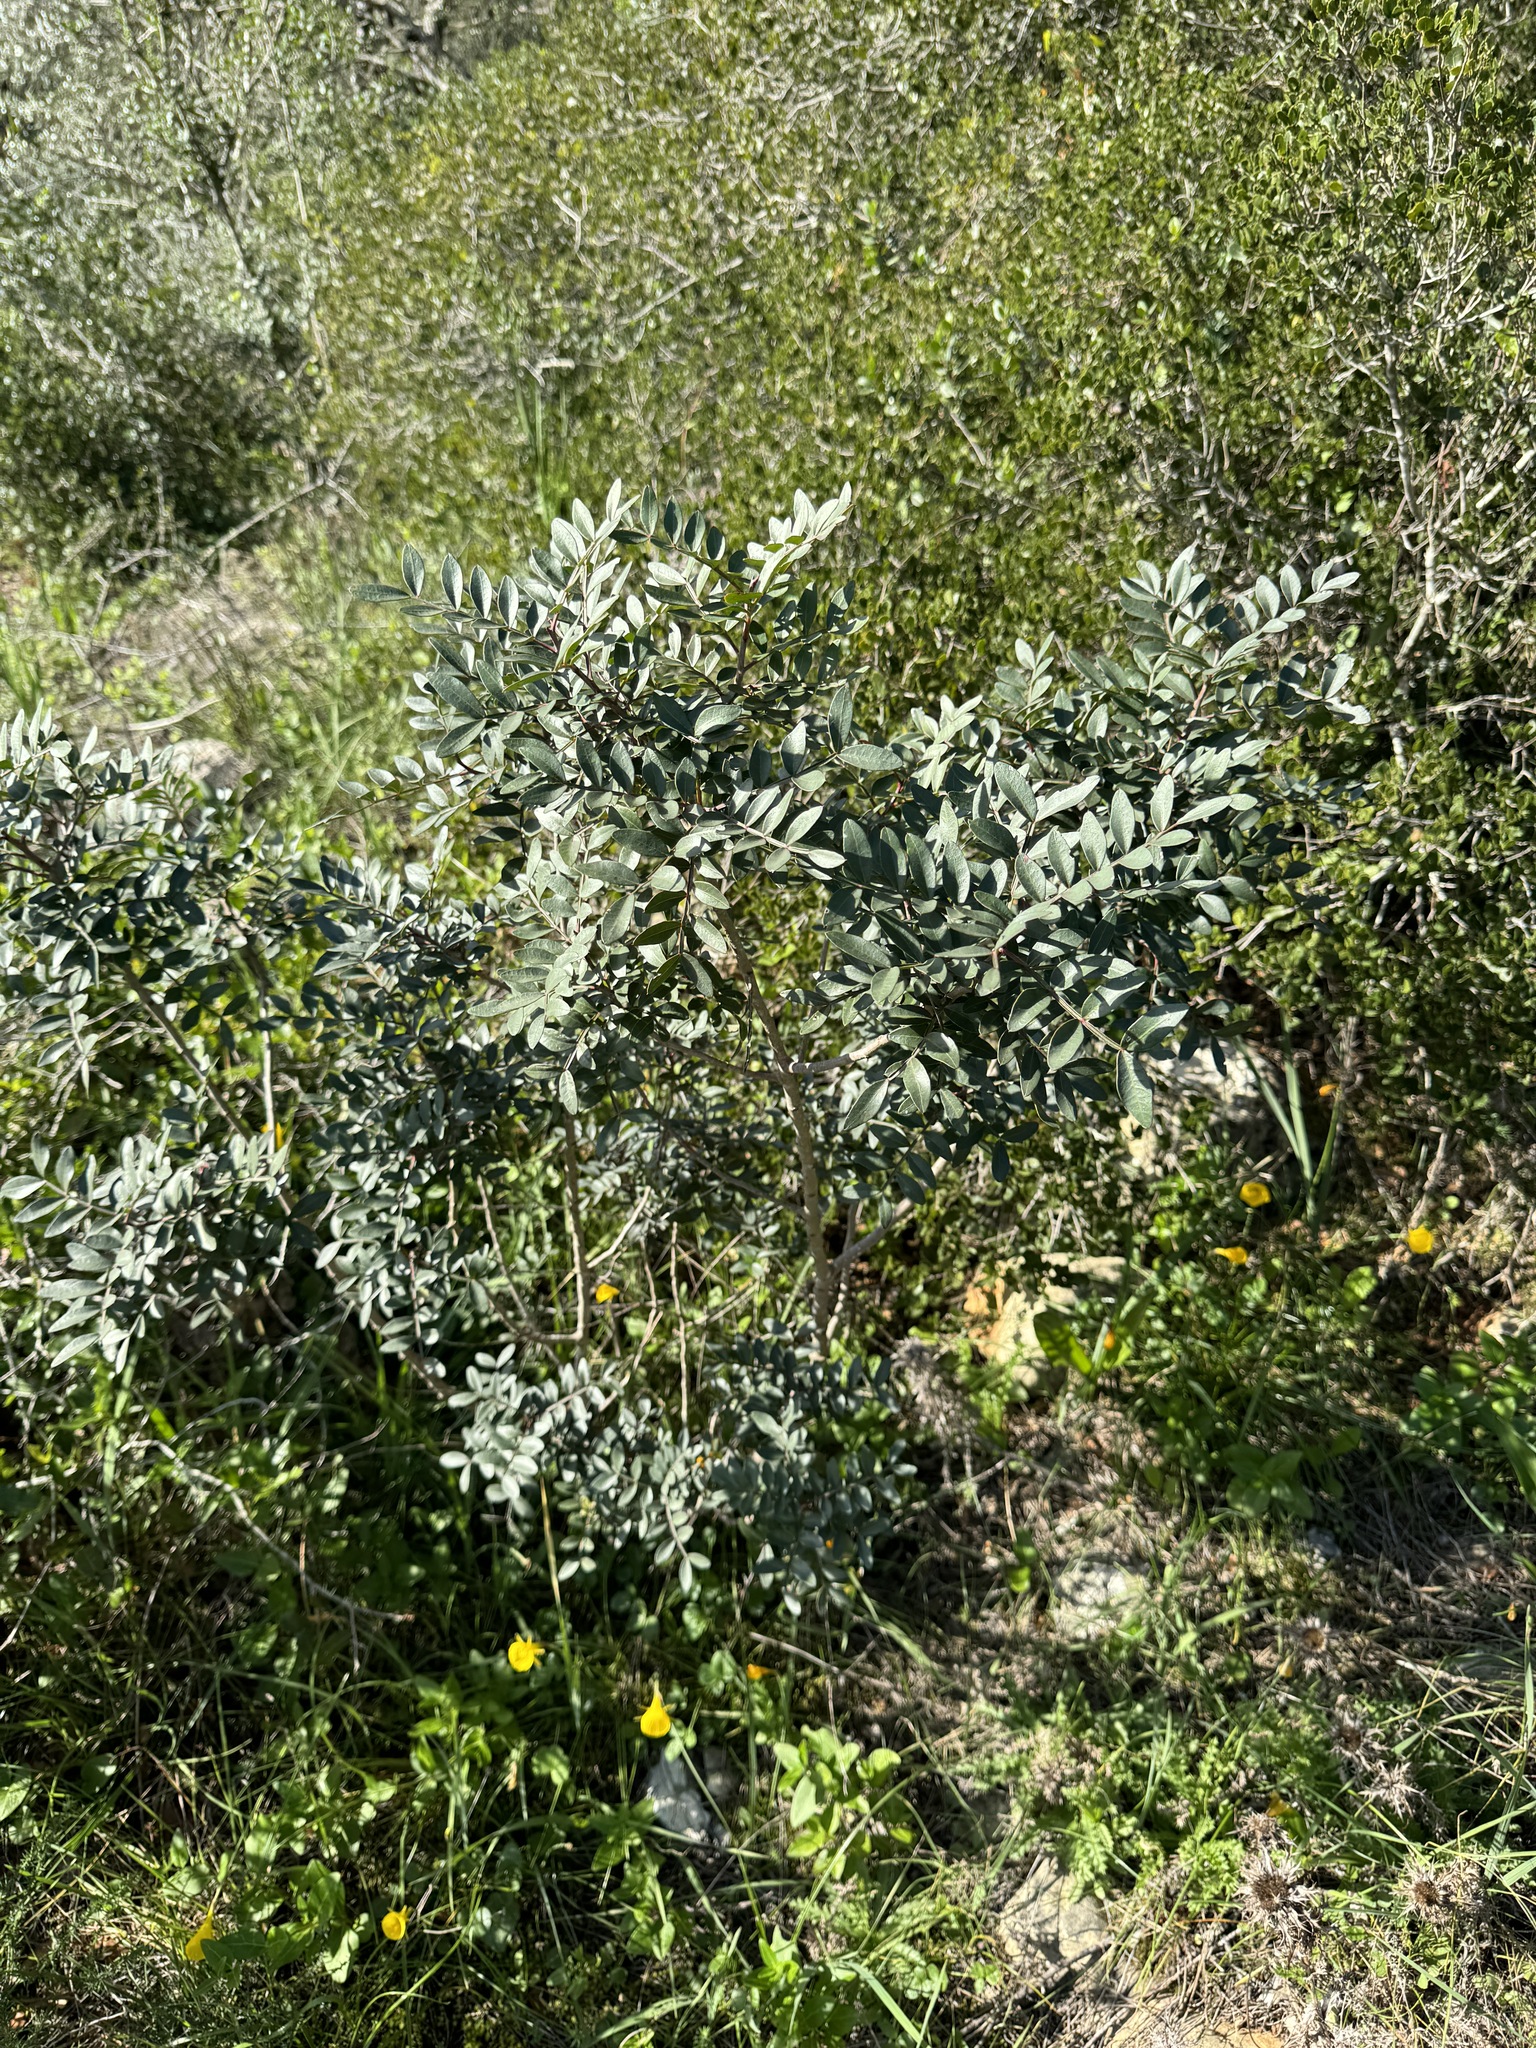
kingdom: Plantae
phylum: Tracheophyta
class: Magnoliopsida
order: Sapindales
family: Anacardiaceae
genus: Pistacia
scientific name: Pistacia lentiscus
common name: Lentisk
